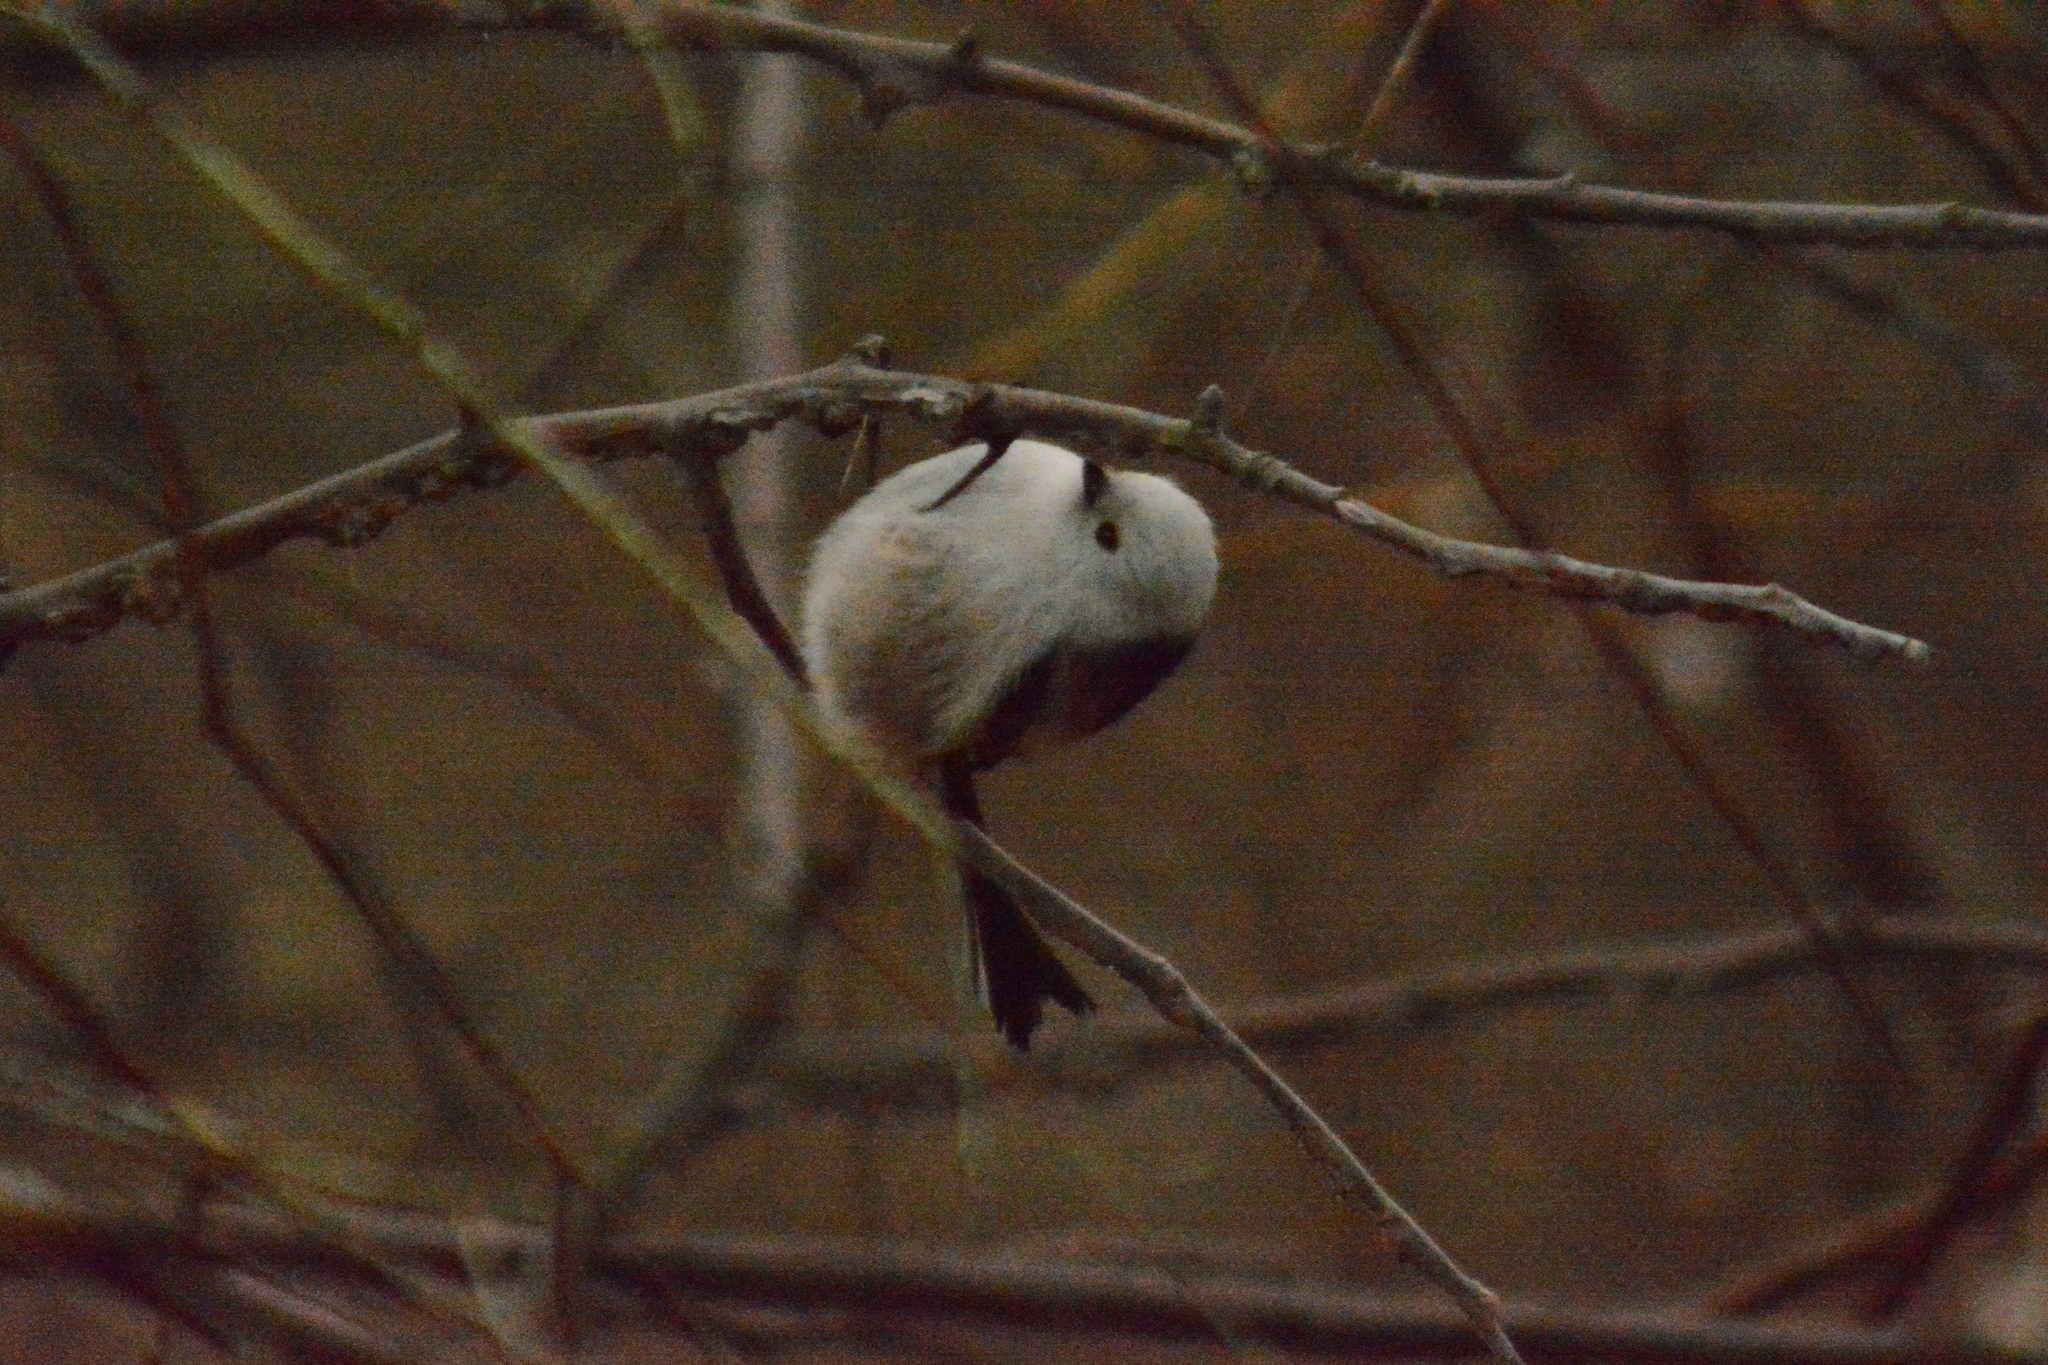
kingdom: Animalia
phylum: Chordata
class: Aves
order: Passeriformes
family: Aegithalidae
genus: Aegithalos
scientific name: Aegithalos caudatus
